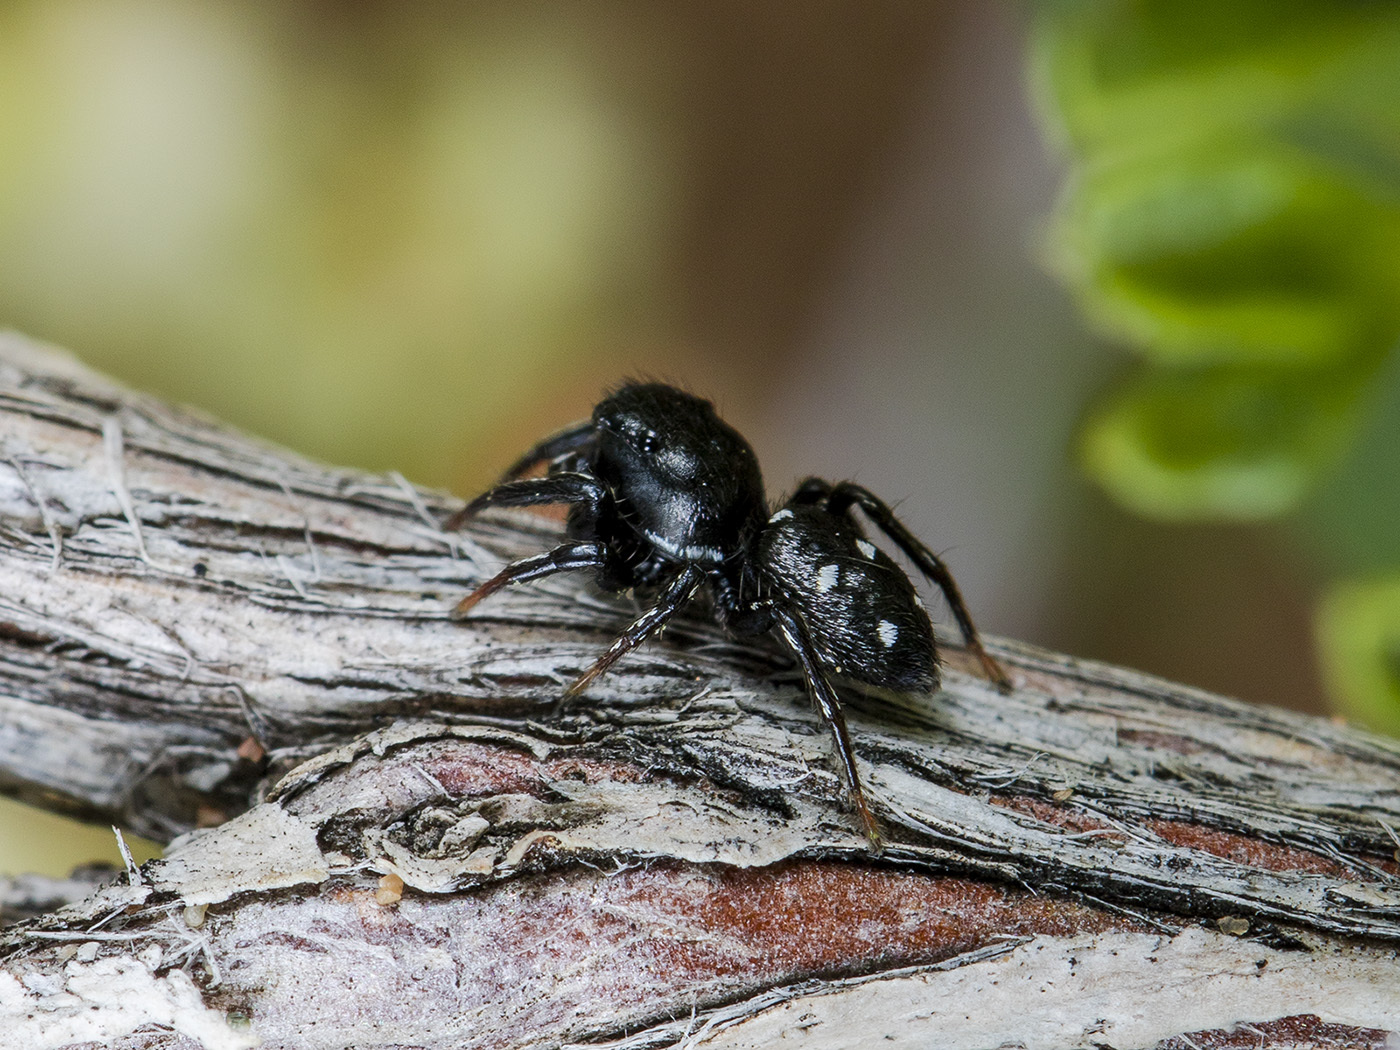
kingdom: Animalia
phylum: Arthropoda
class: Arachnida
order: Araneae
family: Salticidae
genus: Heliophanus
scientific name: Heliophanus chovdensis
